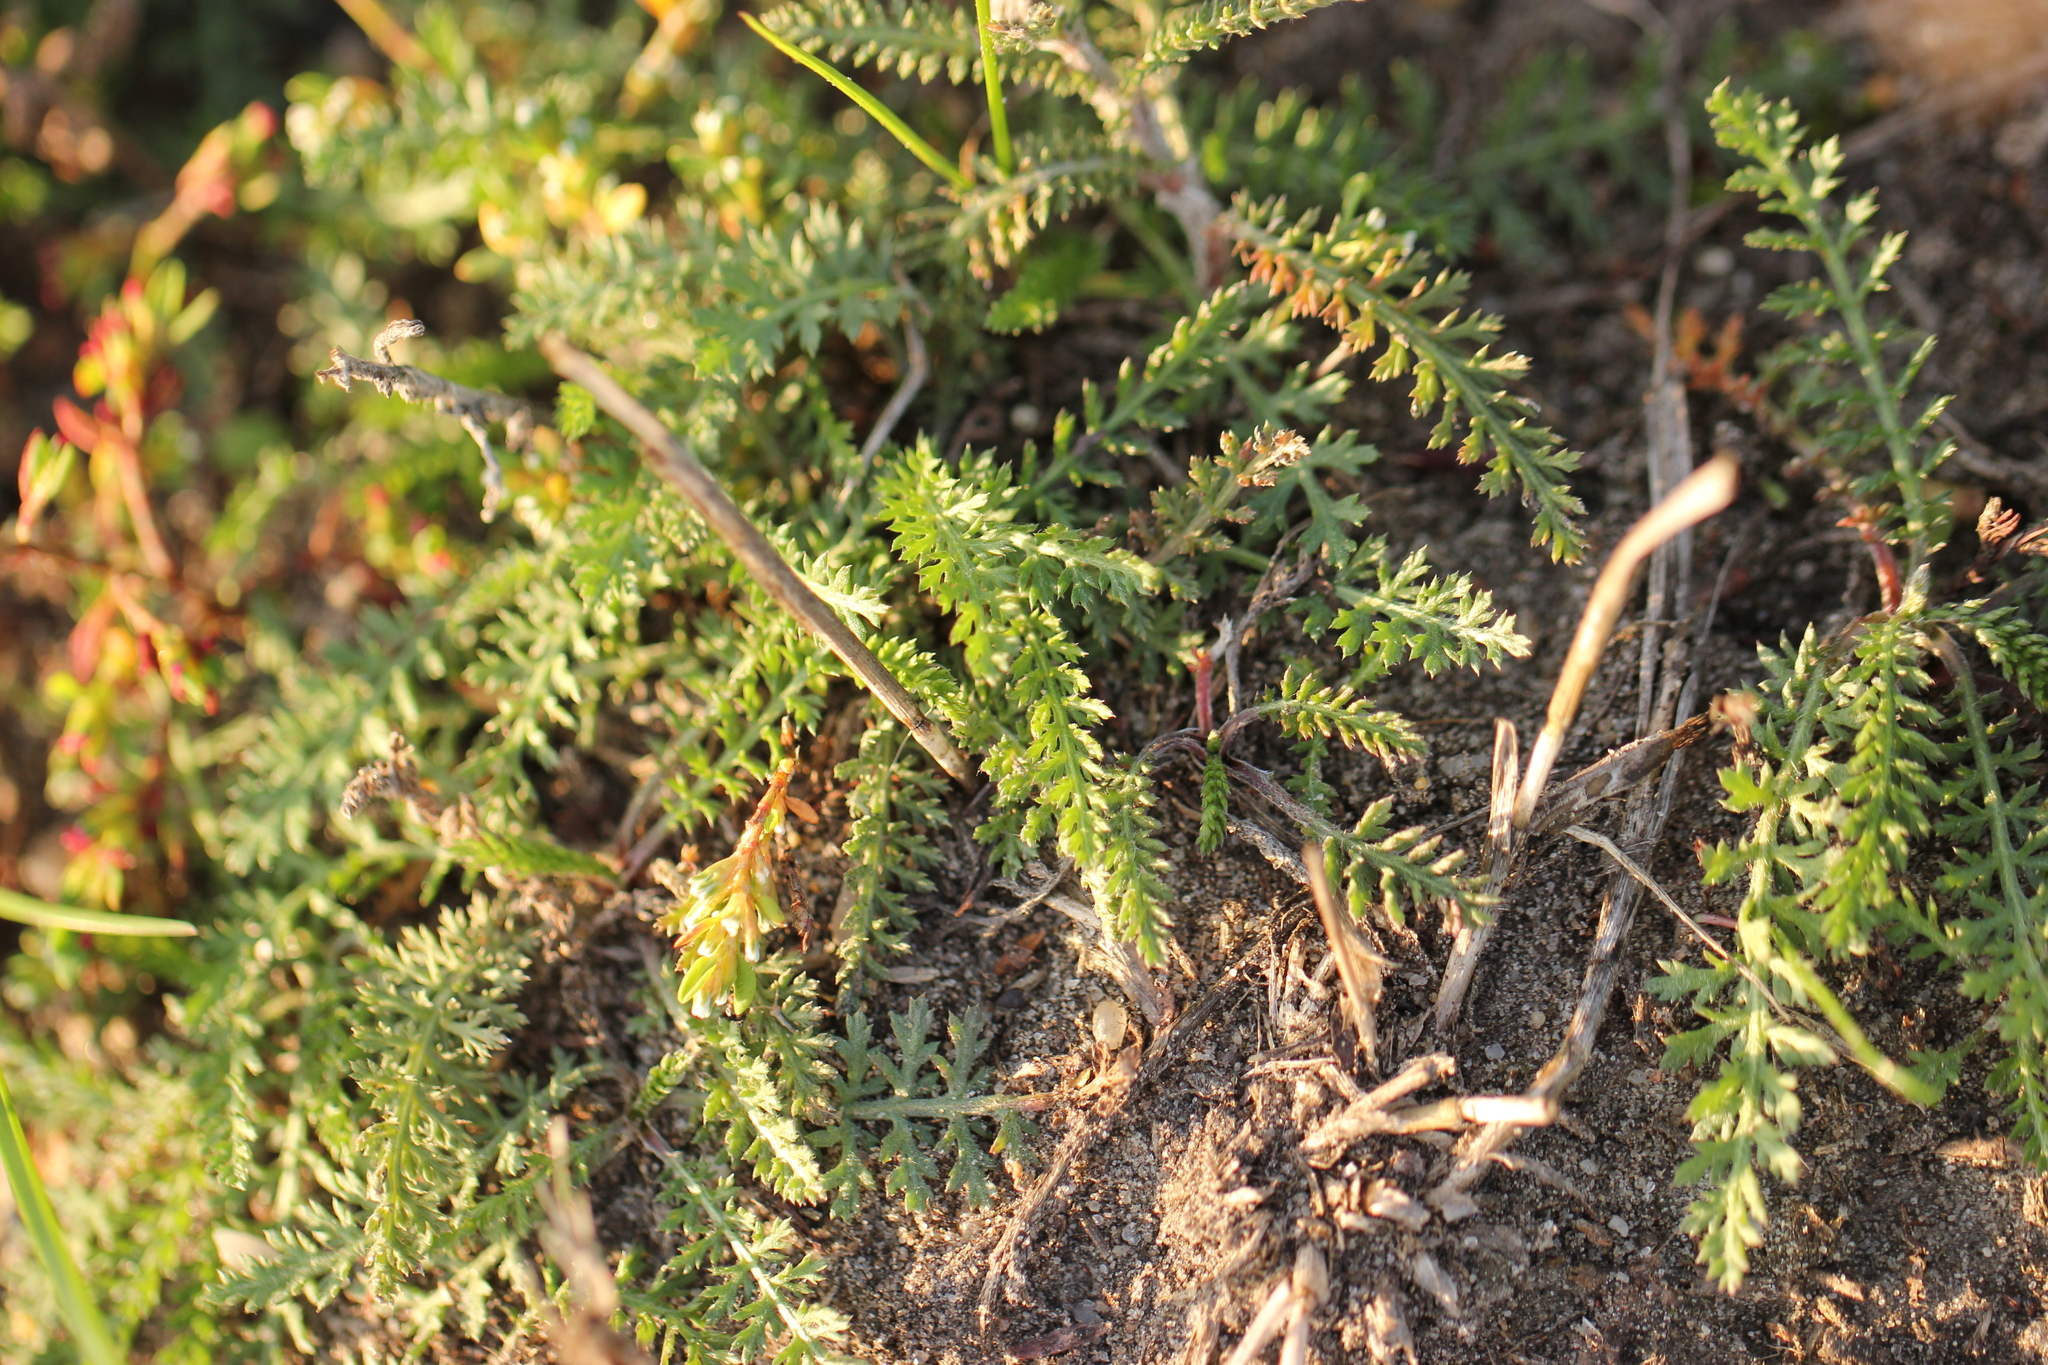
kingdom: Plantae
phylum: Tracheophyta
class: Magnoliopsida
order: Asterales
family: Asteraceae
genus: Achillea
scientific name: Achillea millefolium
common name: Yarrow
